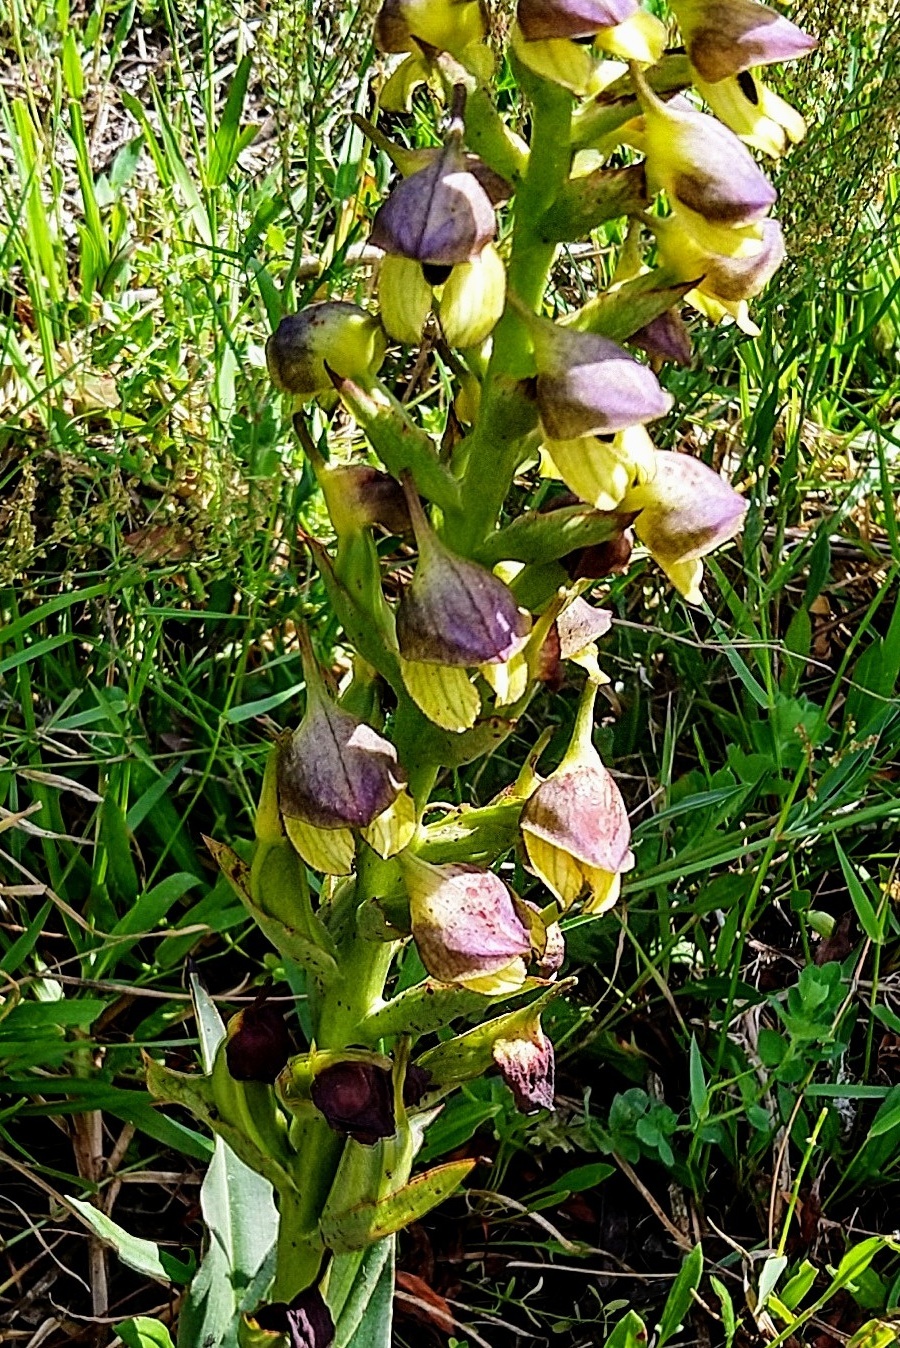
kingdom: Plantae
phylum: Tracheophyta
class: Liliopsida
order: Asparagales
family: Orchidaceae
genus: Disa
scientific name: Disa cornuta
